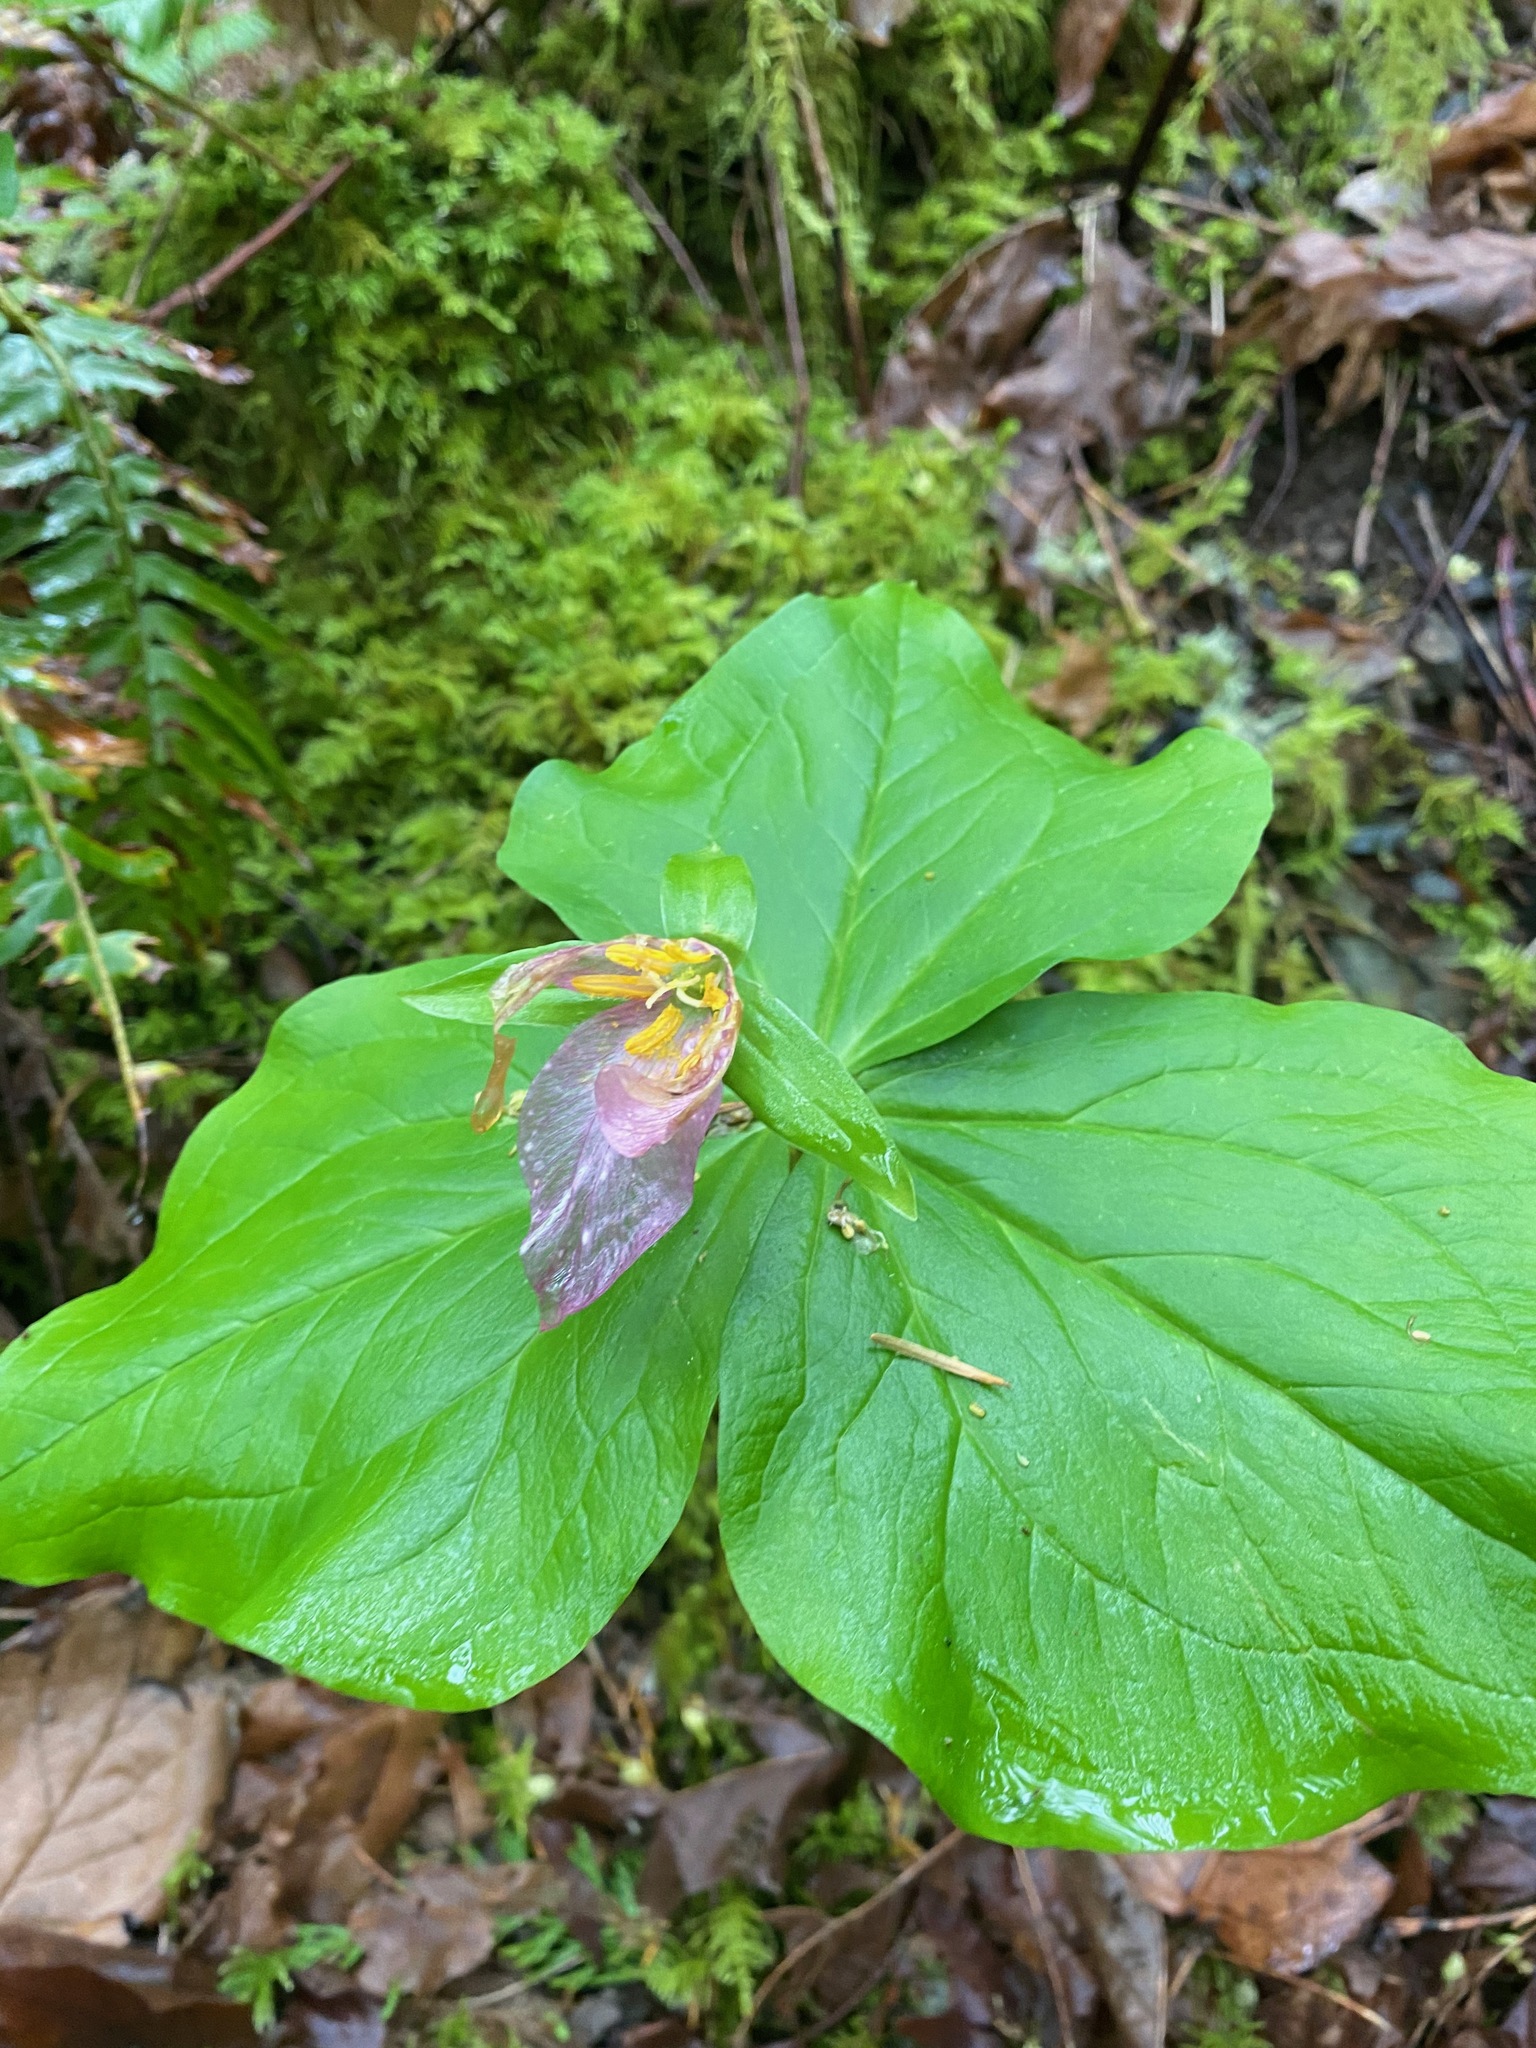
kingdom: Plantae
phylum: Tracheophyta
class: Liliopsida
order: Liliales
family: Melanthiaceae
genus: Trillium
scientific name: Trillium ovatum
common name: Pacific trillium
